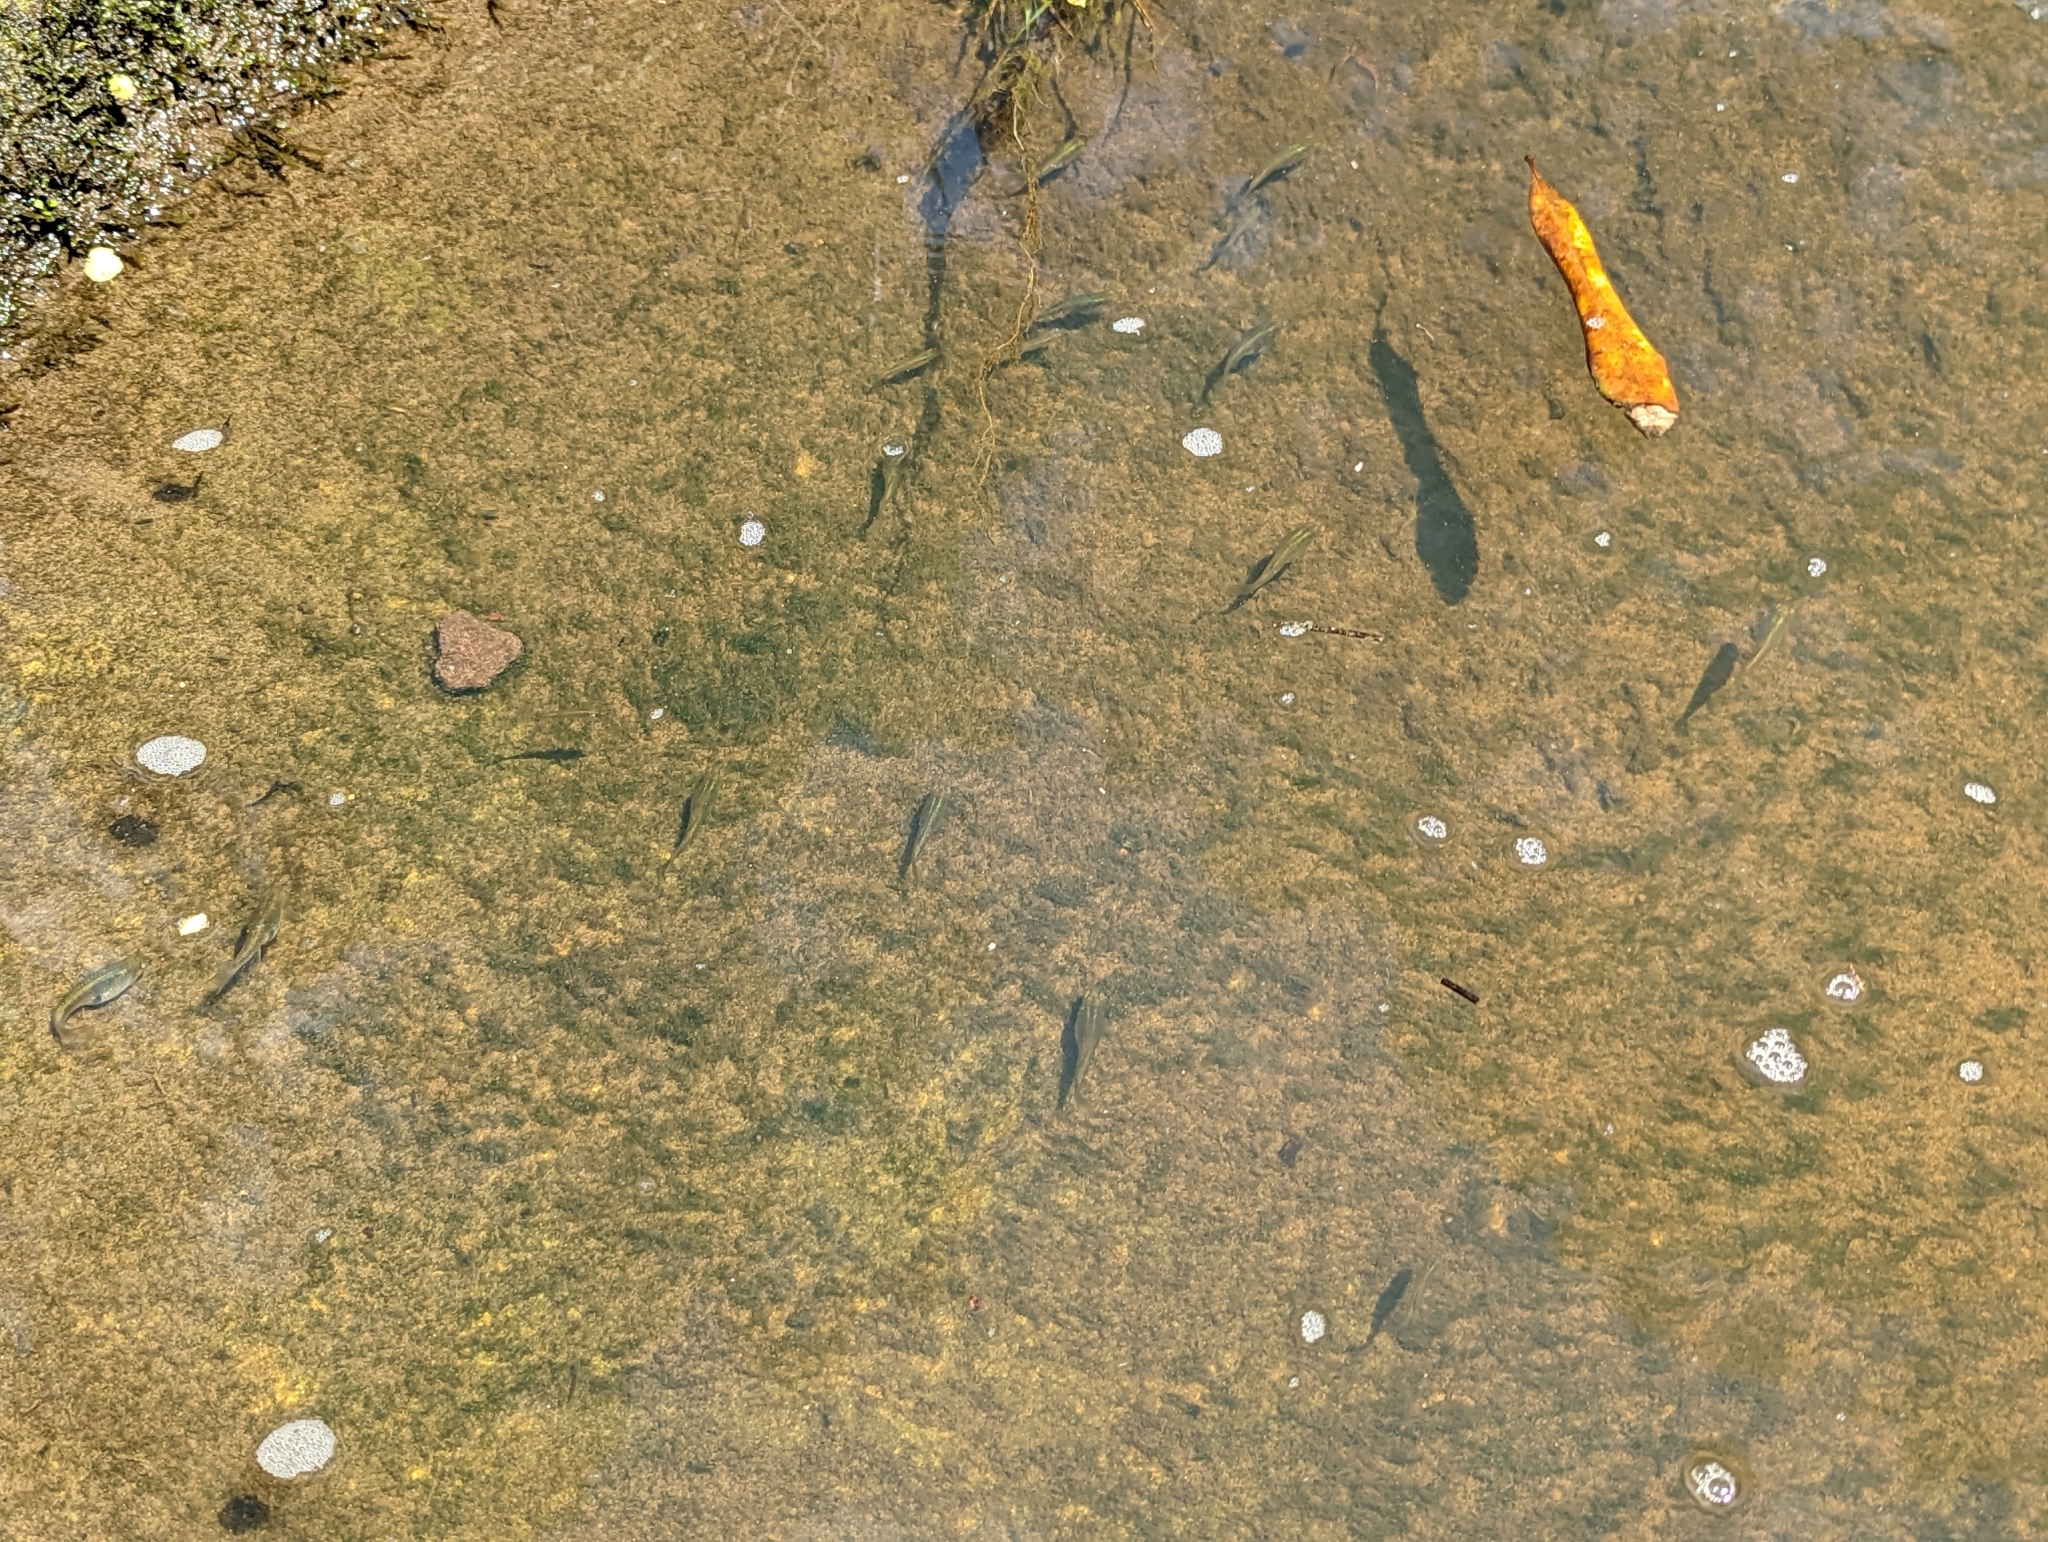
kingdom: Animalia
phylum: Chordata
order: Cyprinodontiformes
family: Poeciliidae
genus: Gambusia
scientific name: Gambusia holbrooki
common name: Eastern mosquitofish
